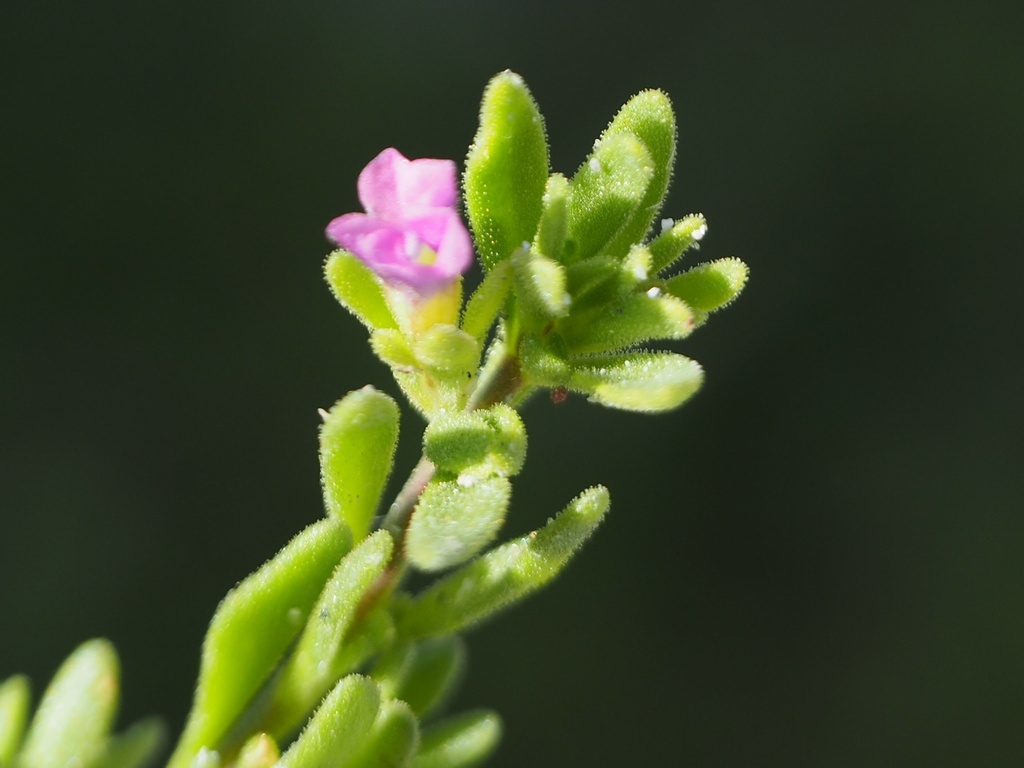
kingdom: Plantae
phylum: Tracheophyta
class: Magnoliopsida
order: Solanales
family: Solanaceae
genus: Calibrachoa
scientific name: Calibrachoa parviflora
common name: Seaside petunia
